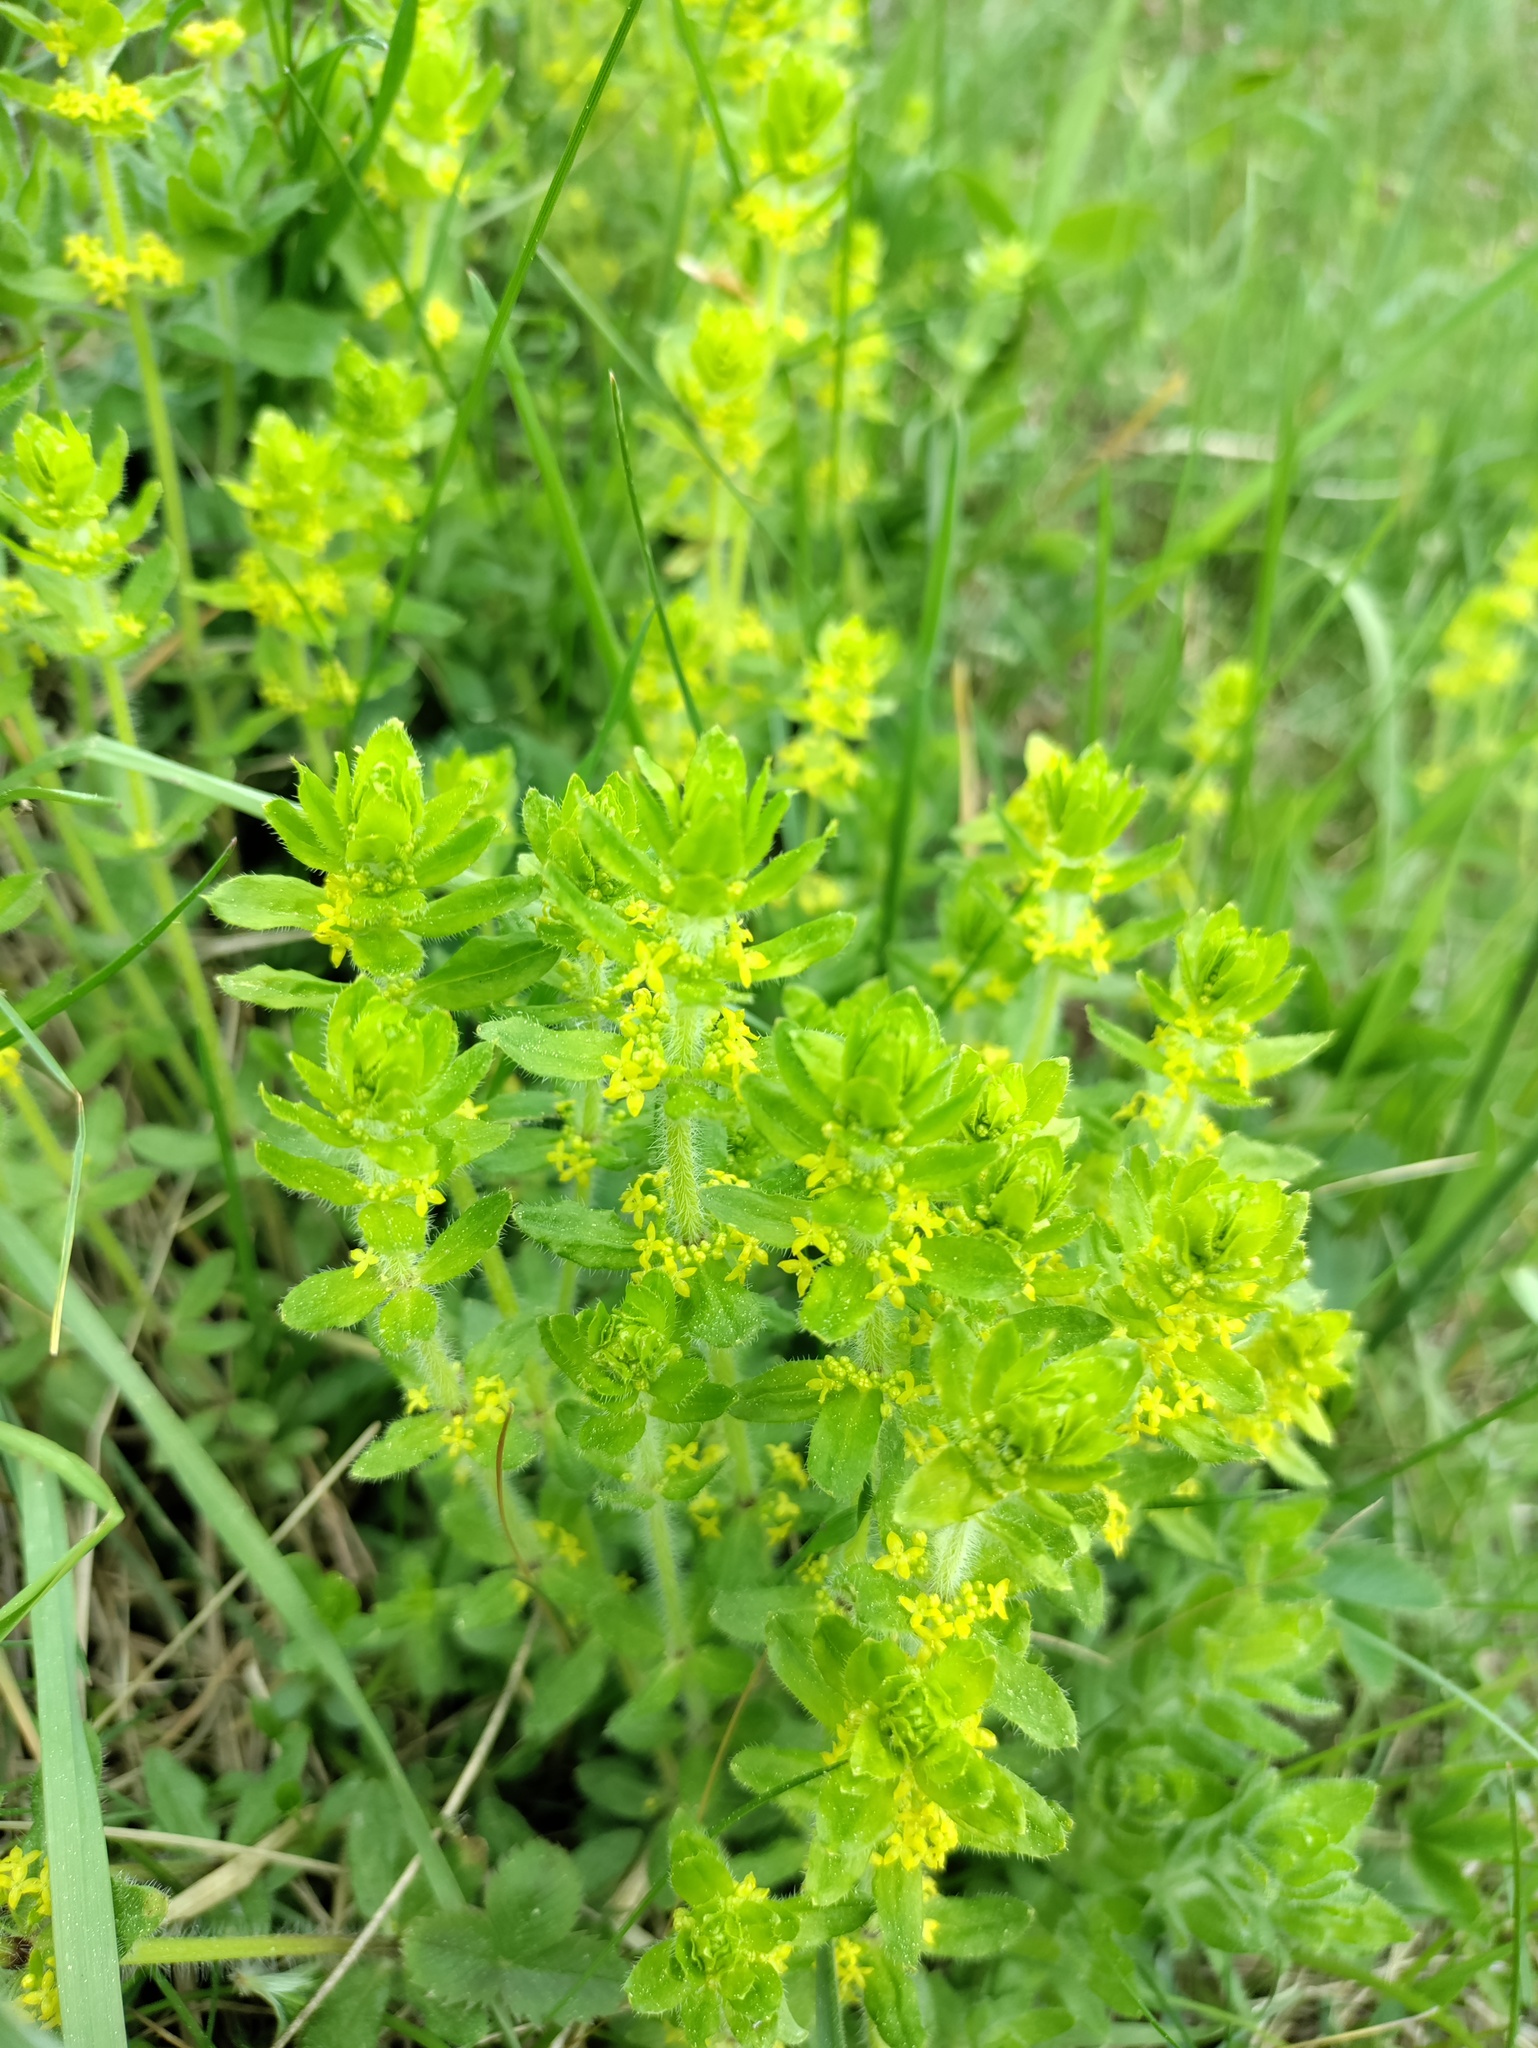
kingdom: Plantae
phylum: Tracheophyta
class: Magnoliopsida
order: Gentianales
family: Rubiaceae
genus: Cruciata
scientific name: Cruciata laevipes
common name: Crosswort
